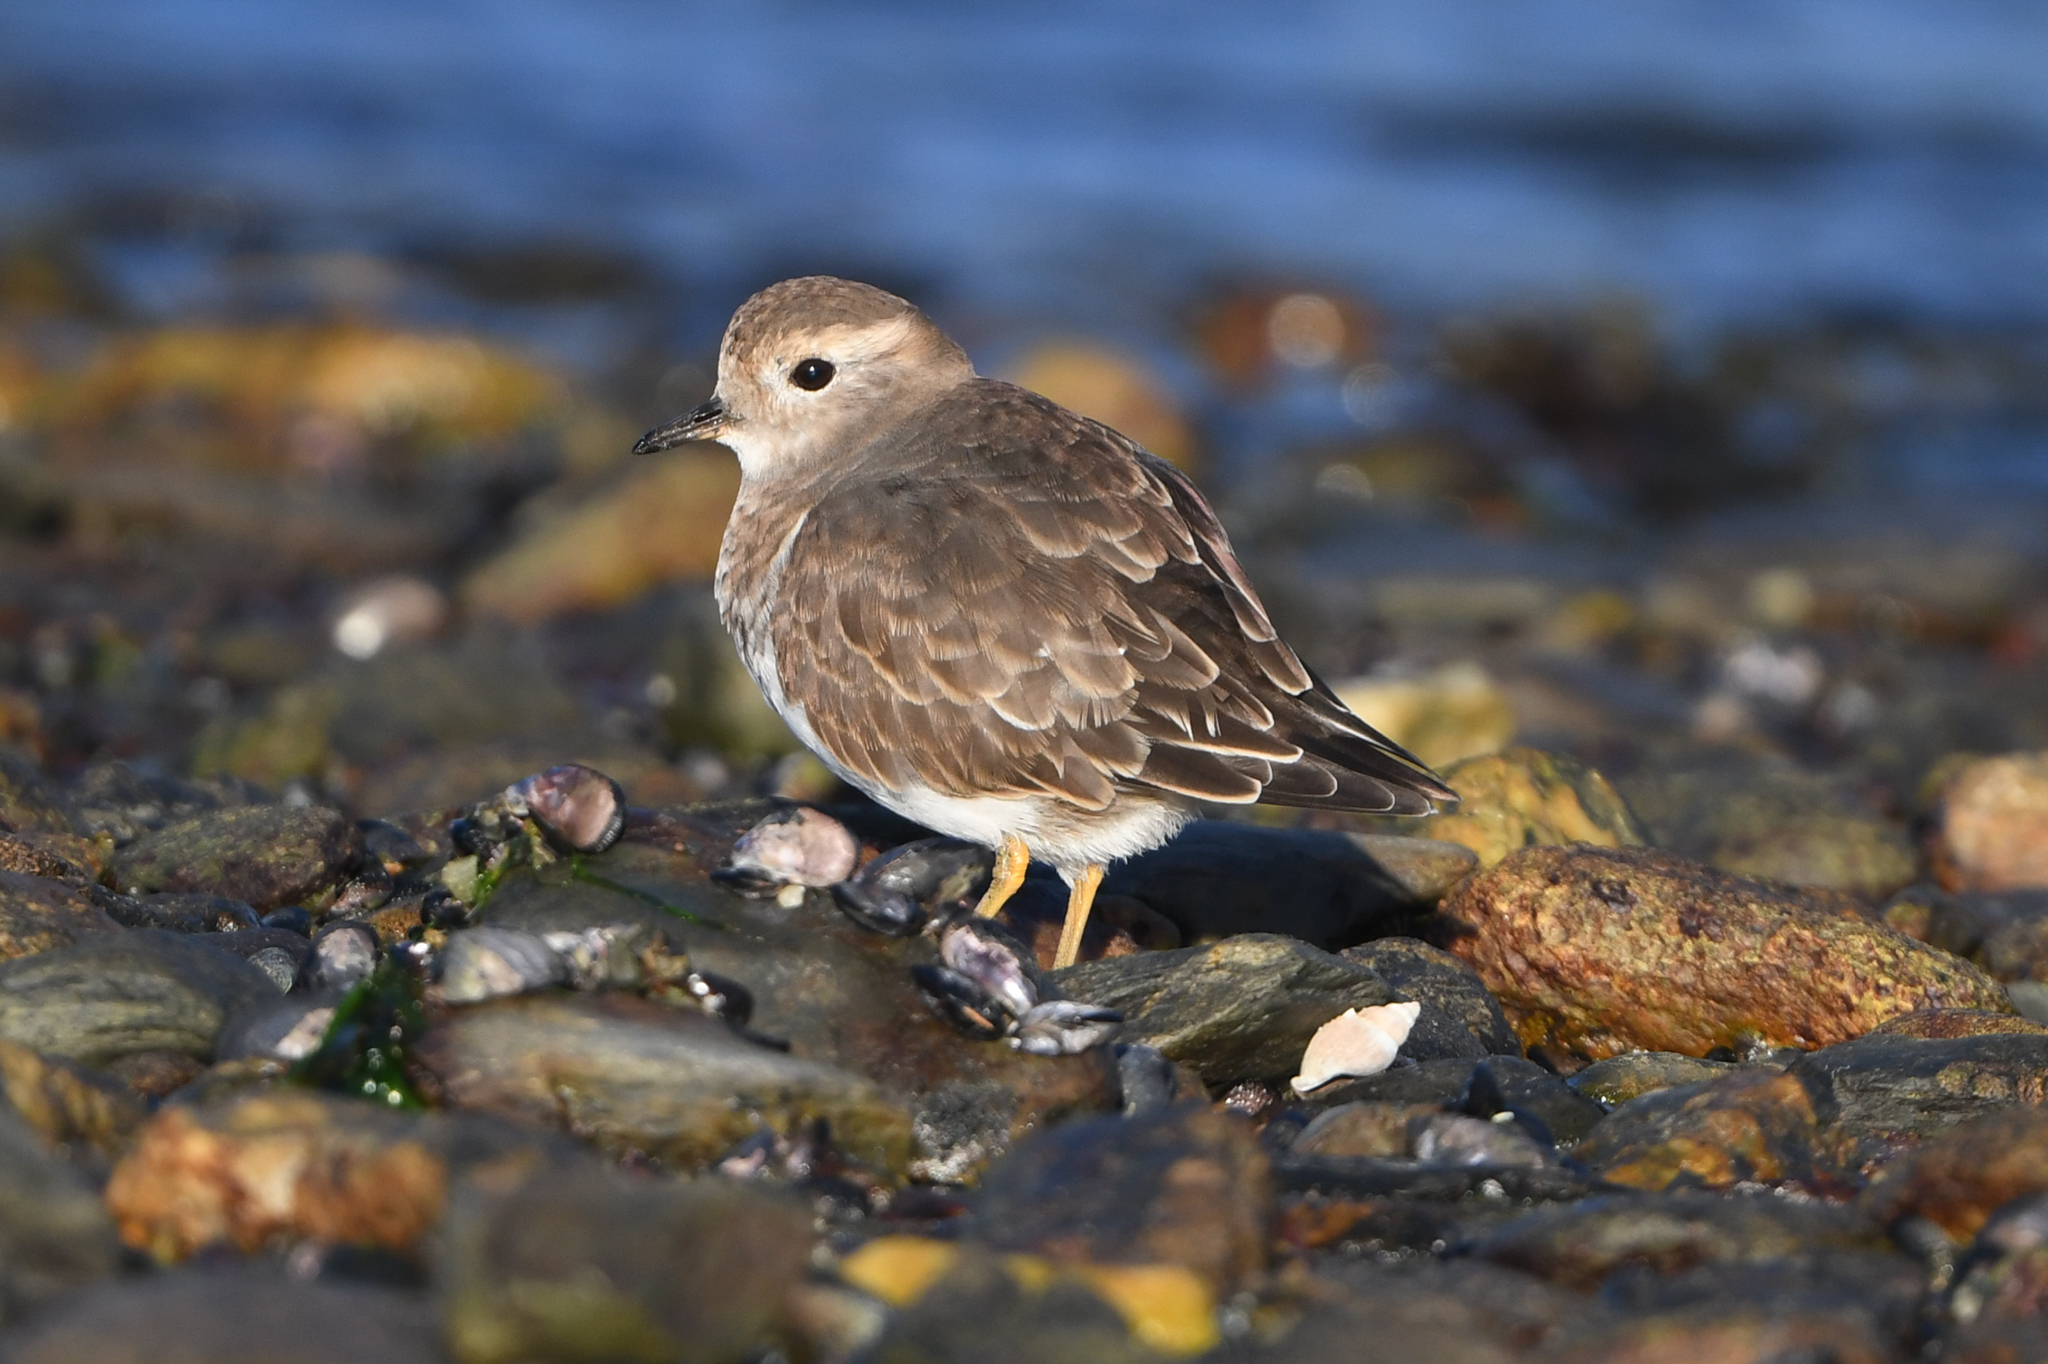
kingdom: Animalia
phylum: Chordata
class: Aves
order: Charadriiformes
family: Charadriidae
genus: Charadrius
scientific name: Charadrius modestus
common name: Rufous-chested plover
